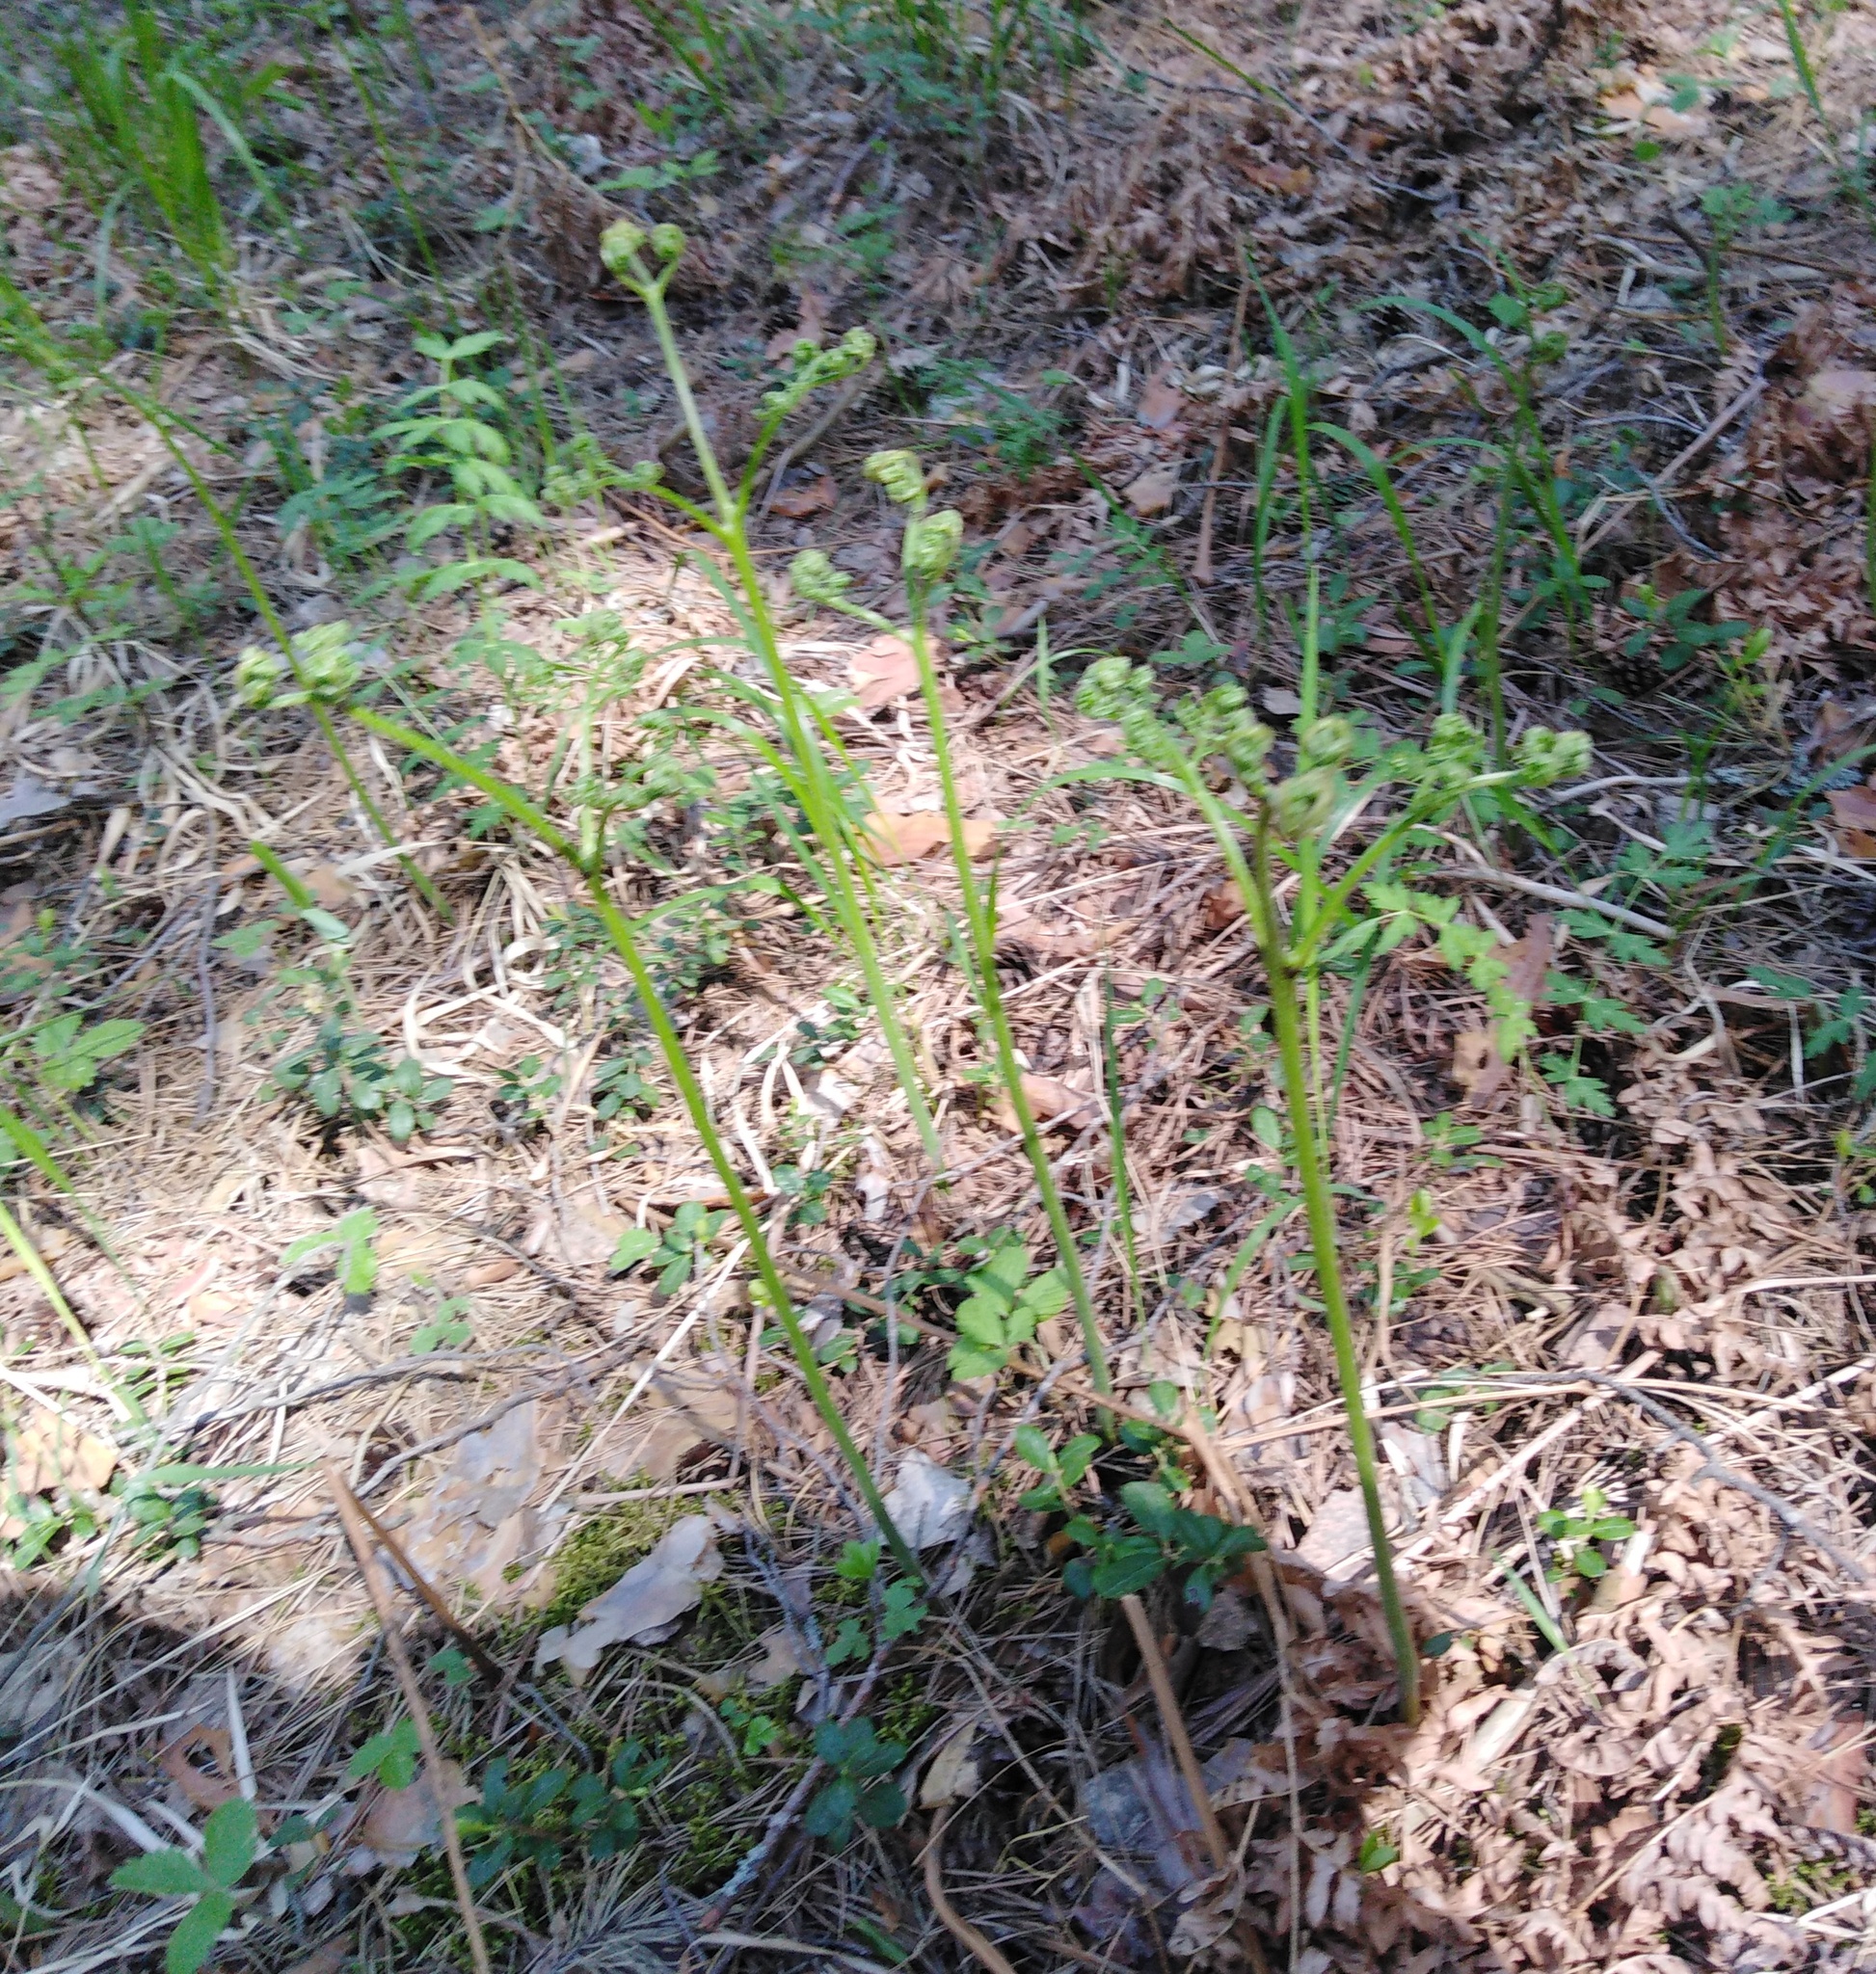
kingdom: Plantae
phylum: Tracheophyta
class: Polypodiopsida
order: Polypodiales
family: Dennstaedtiaceae
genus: Pteridium
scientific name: Pteridium aquilinum
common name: Bracken
